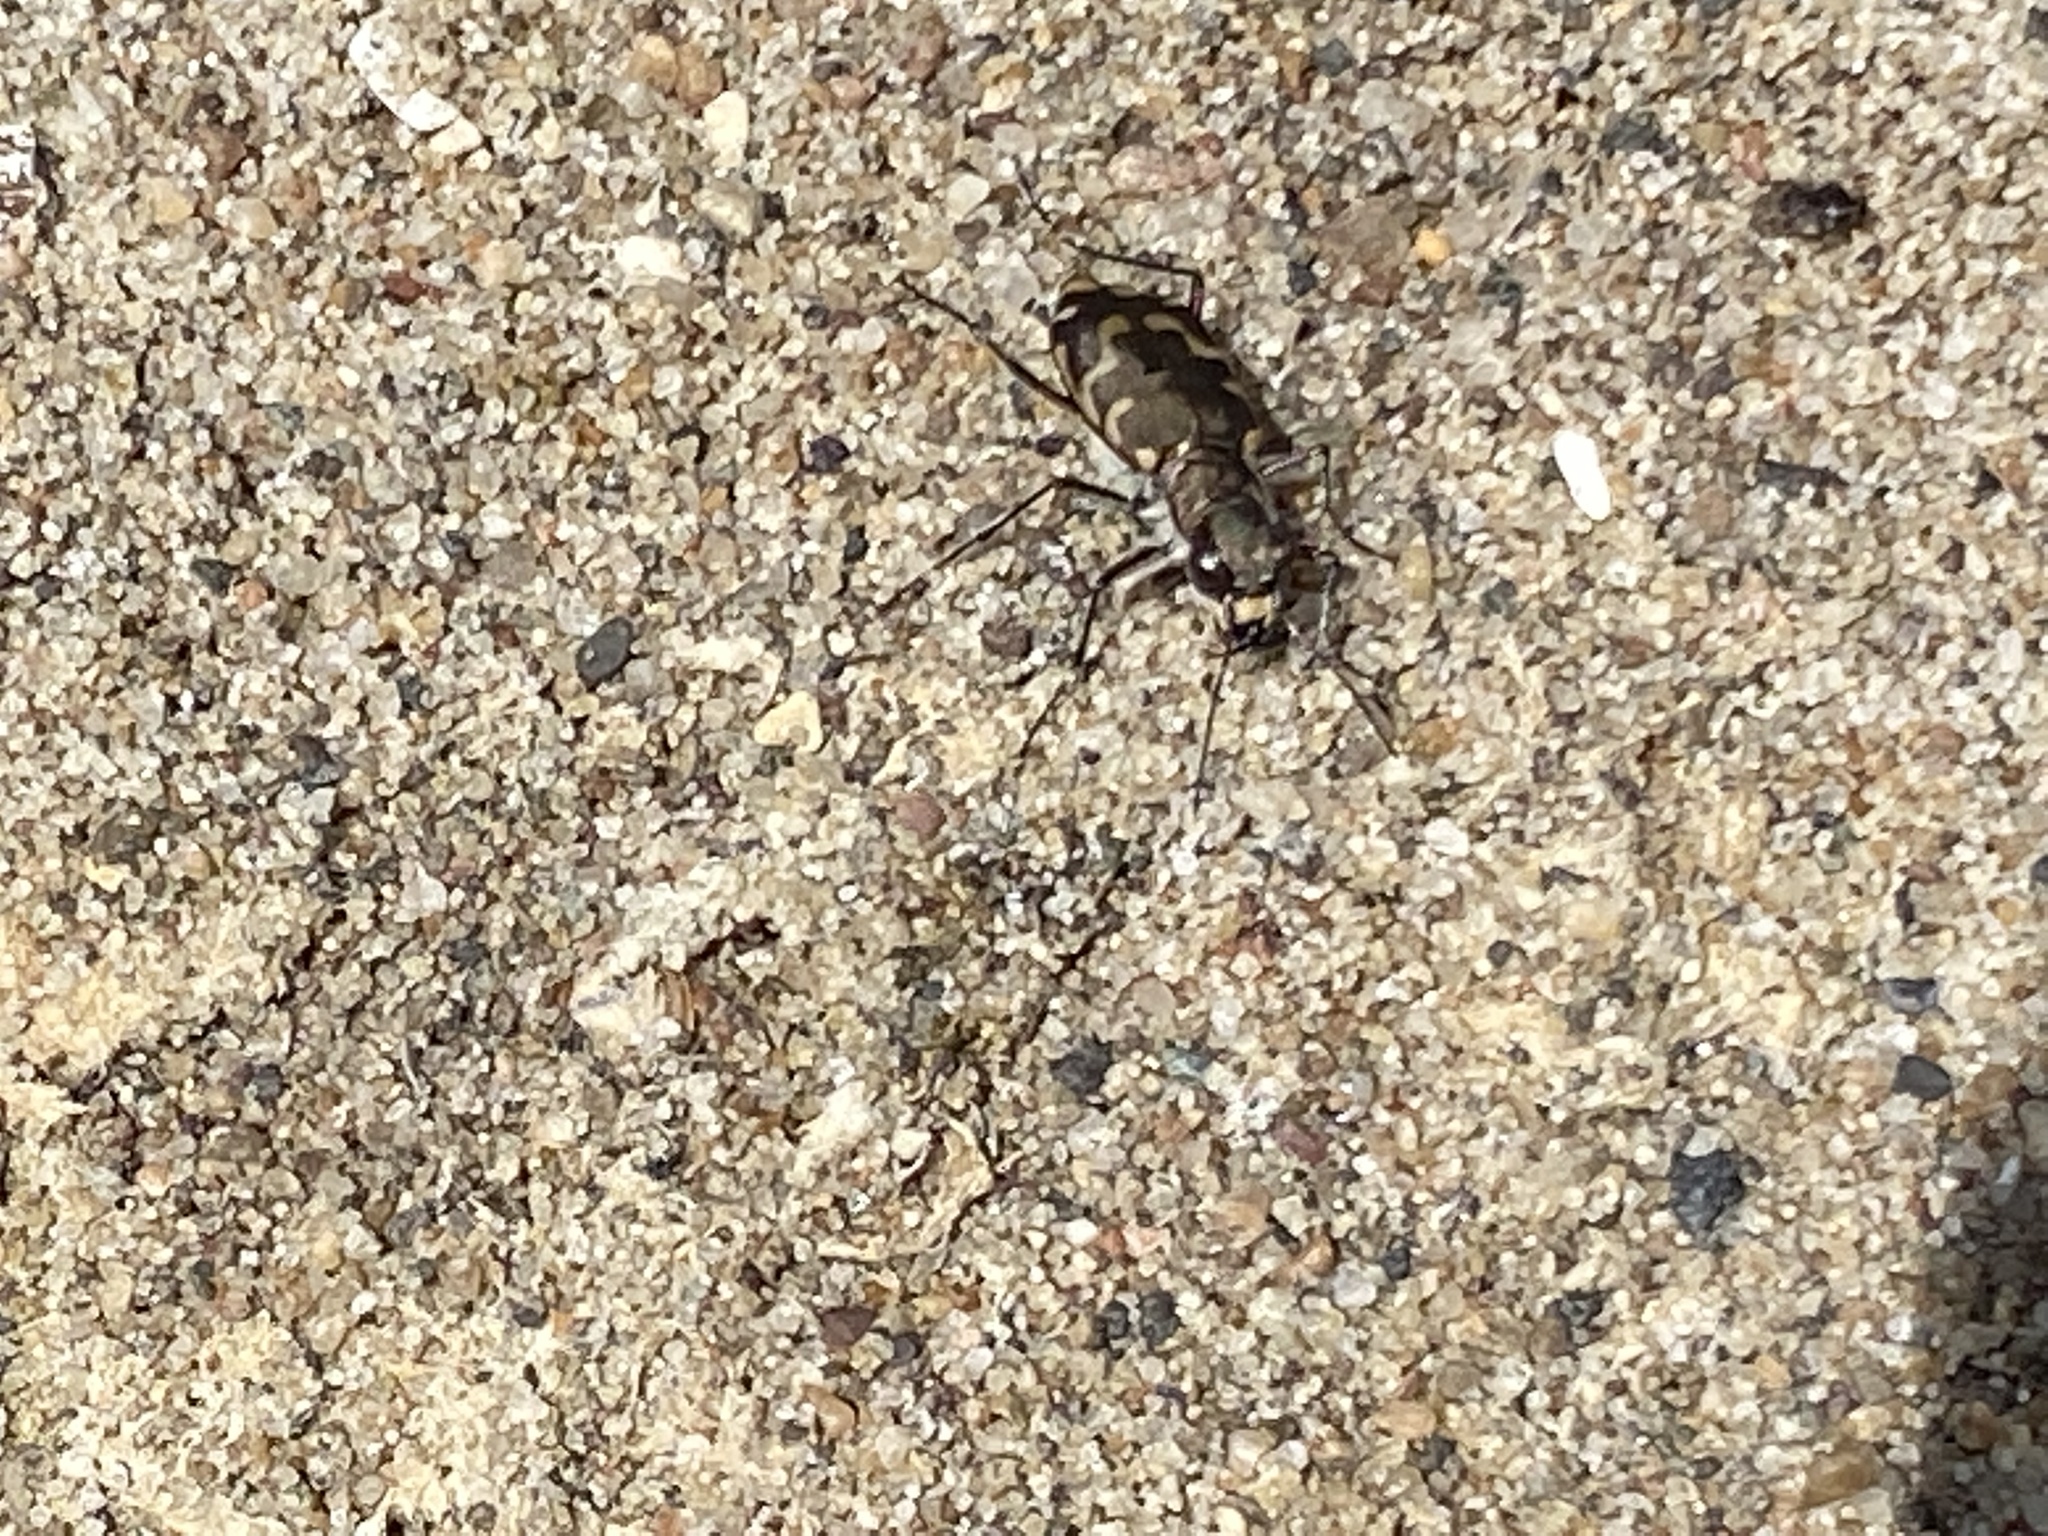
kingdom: Animalia
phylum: Arthropoda
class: Insecta
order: Coleoptera
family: Carabidae
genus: Cicindela
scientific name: Cicindela repanda
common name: Bronzed tiger beetle
